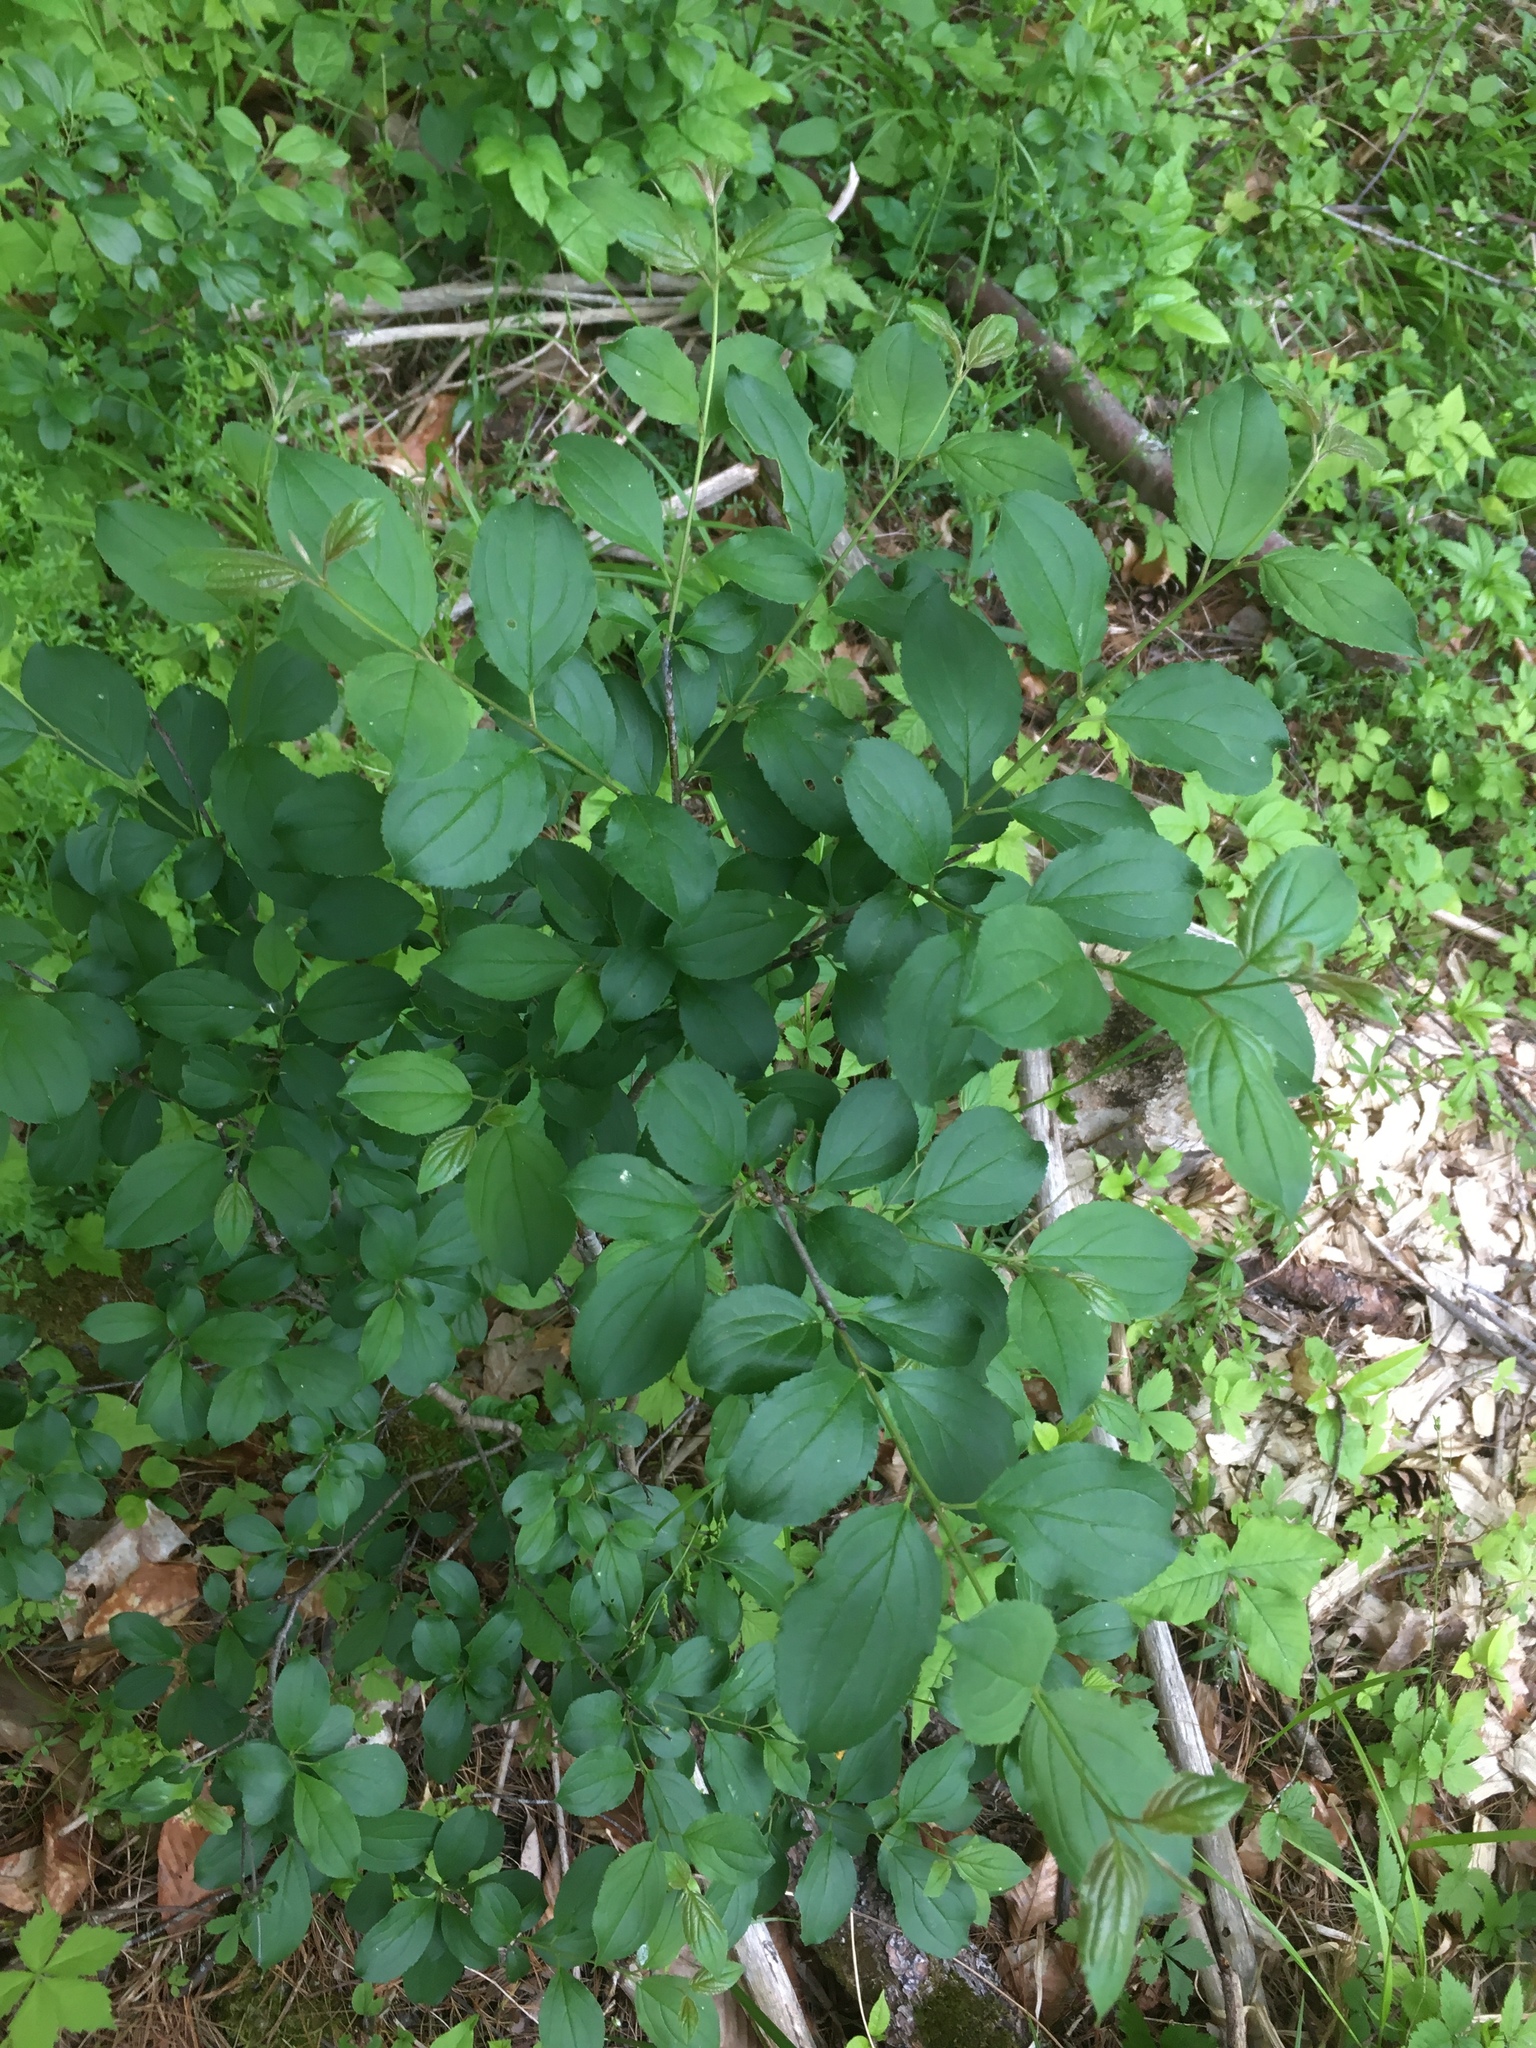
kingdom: Plantae
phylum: Tracheophyta
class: Magnoliopsida
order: Rosales
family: Rhamnaceae
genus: Rhamnus
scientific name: Rhamnus cathartica
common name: Common buckthorn
